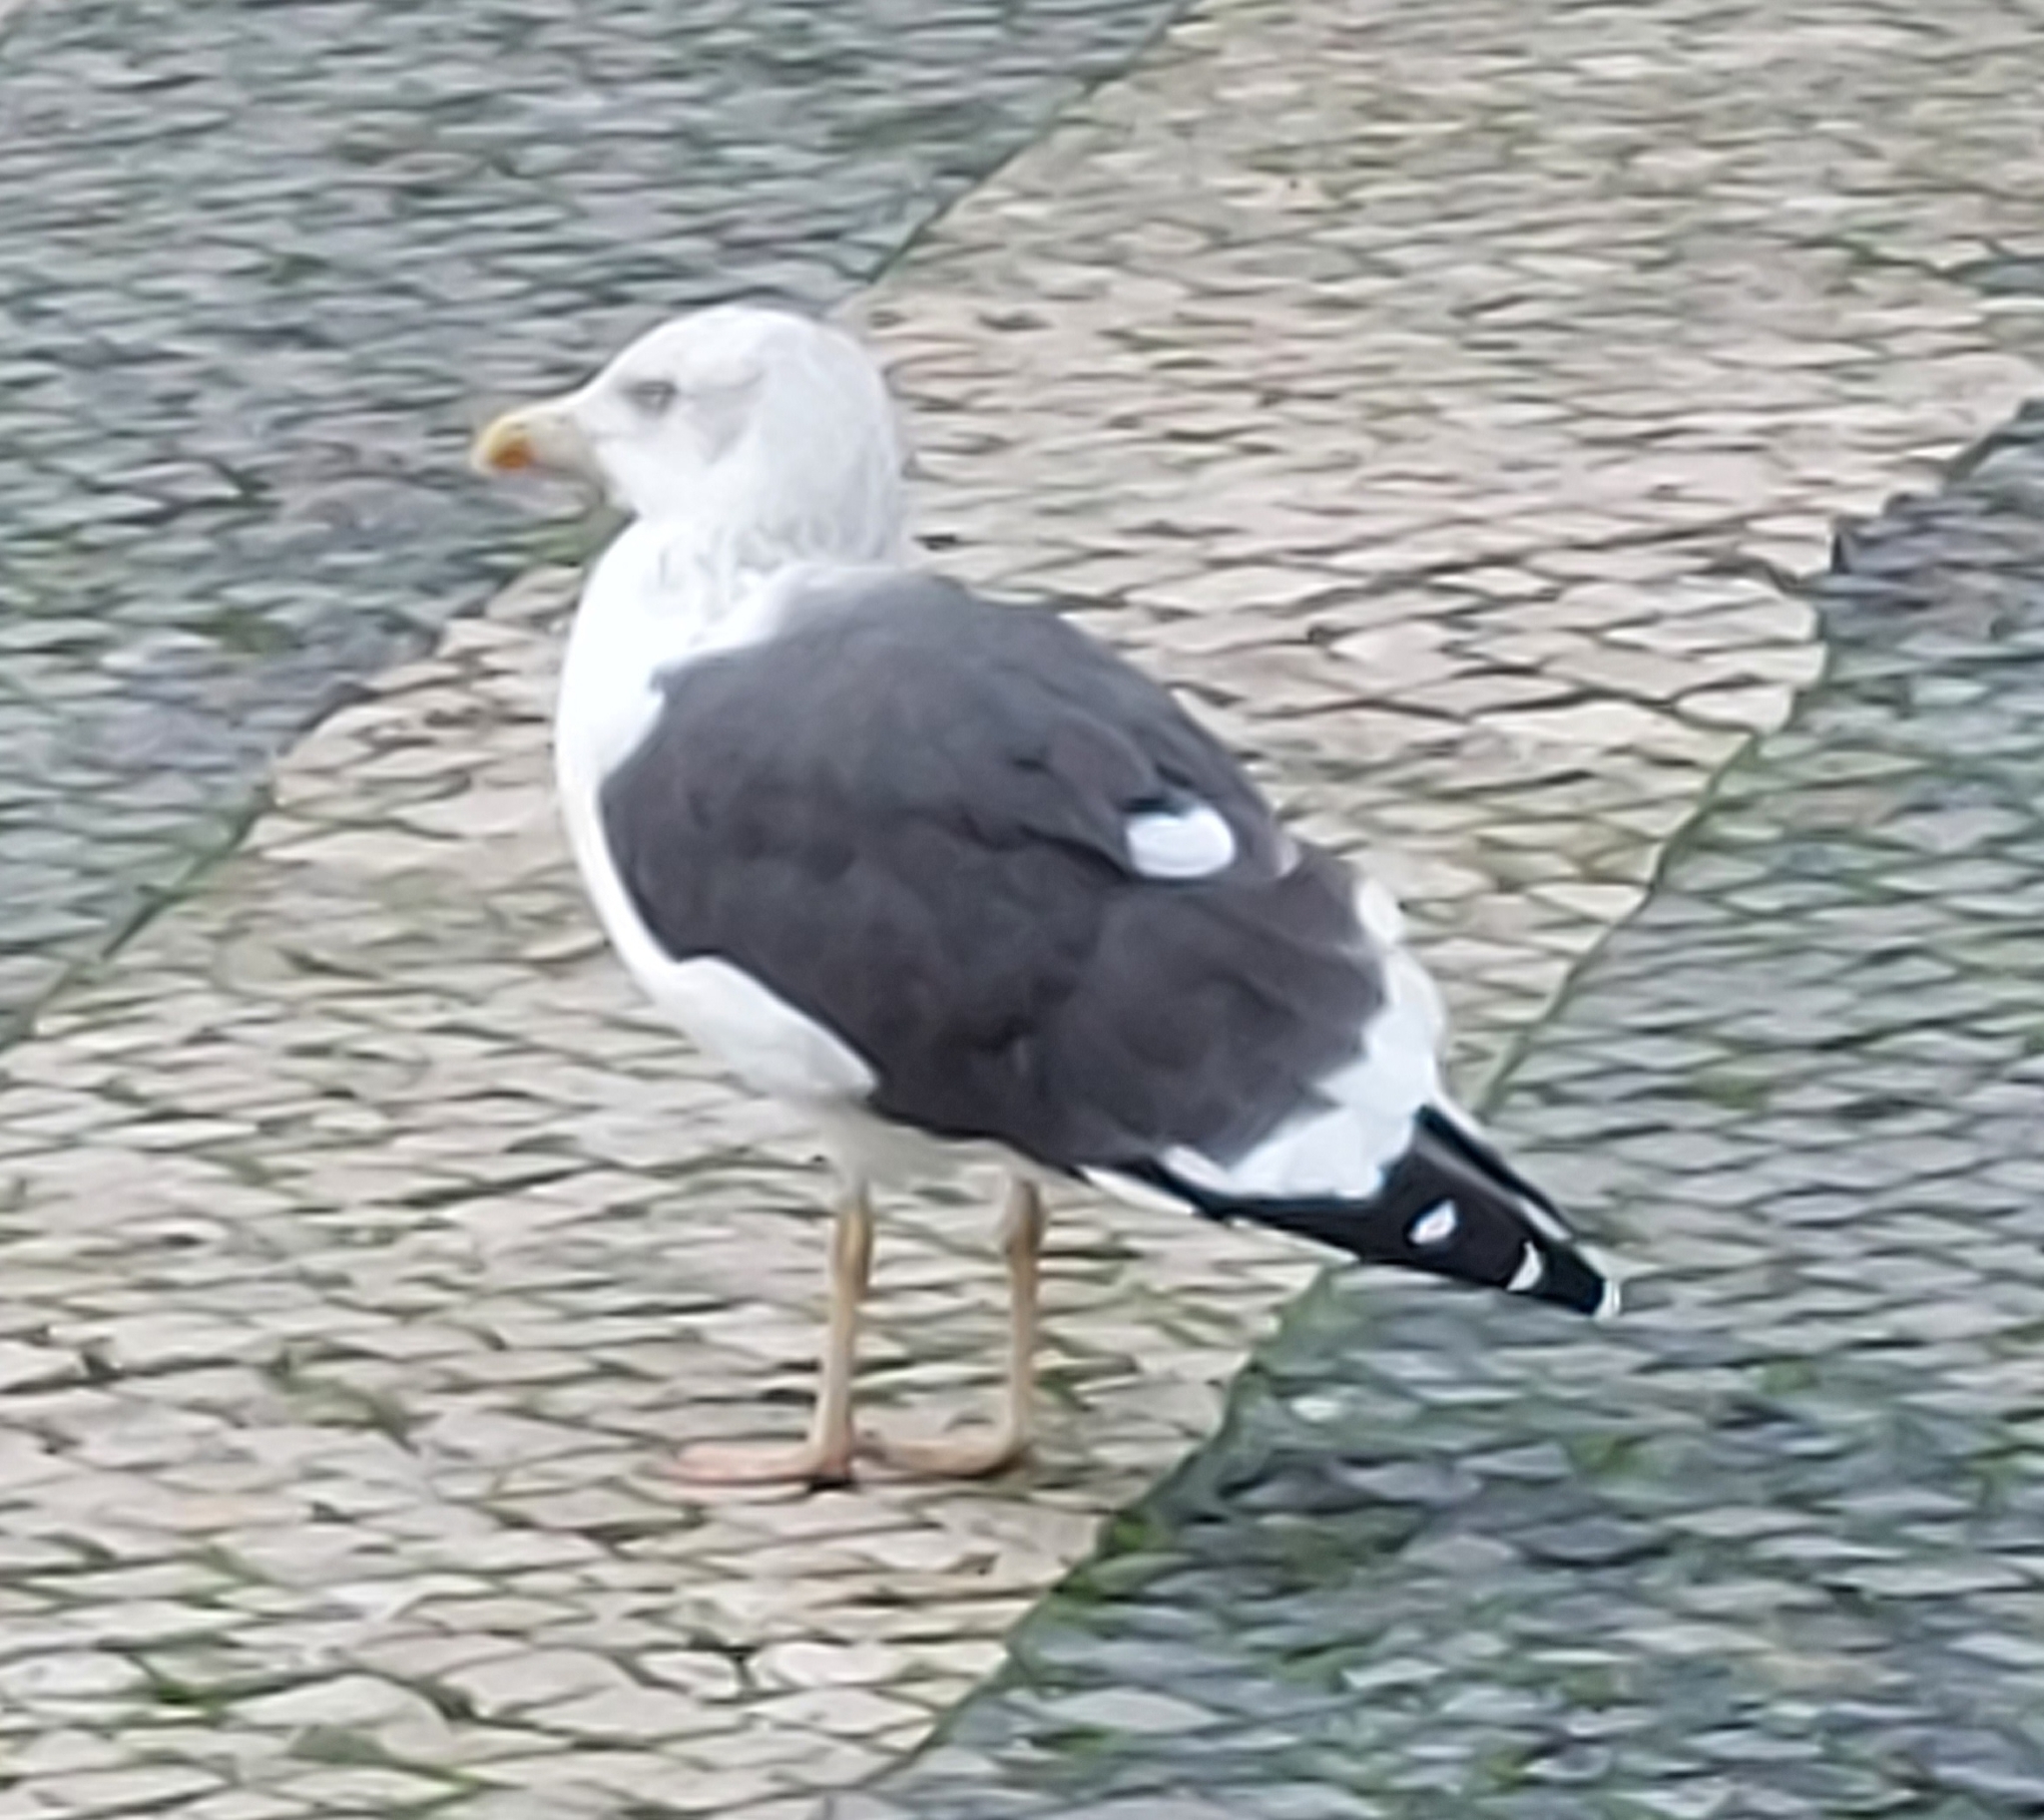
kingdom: Animalia
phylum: Chordata
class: Aves
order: Charadriiformes
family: Laridae
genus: Larus
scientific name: Larus fuscus
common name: Lesser black-backed gull
